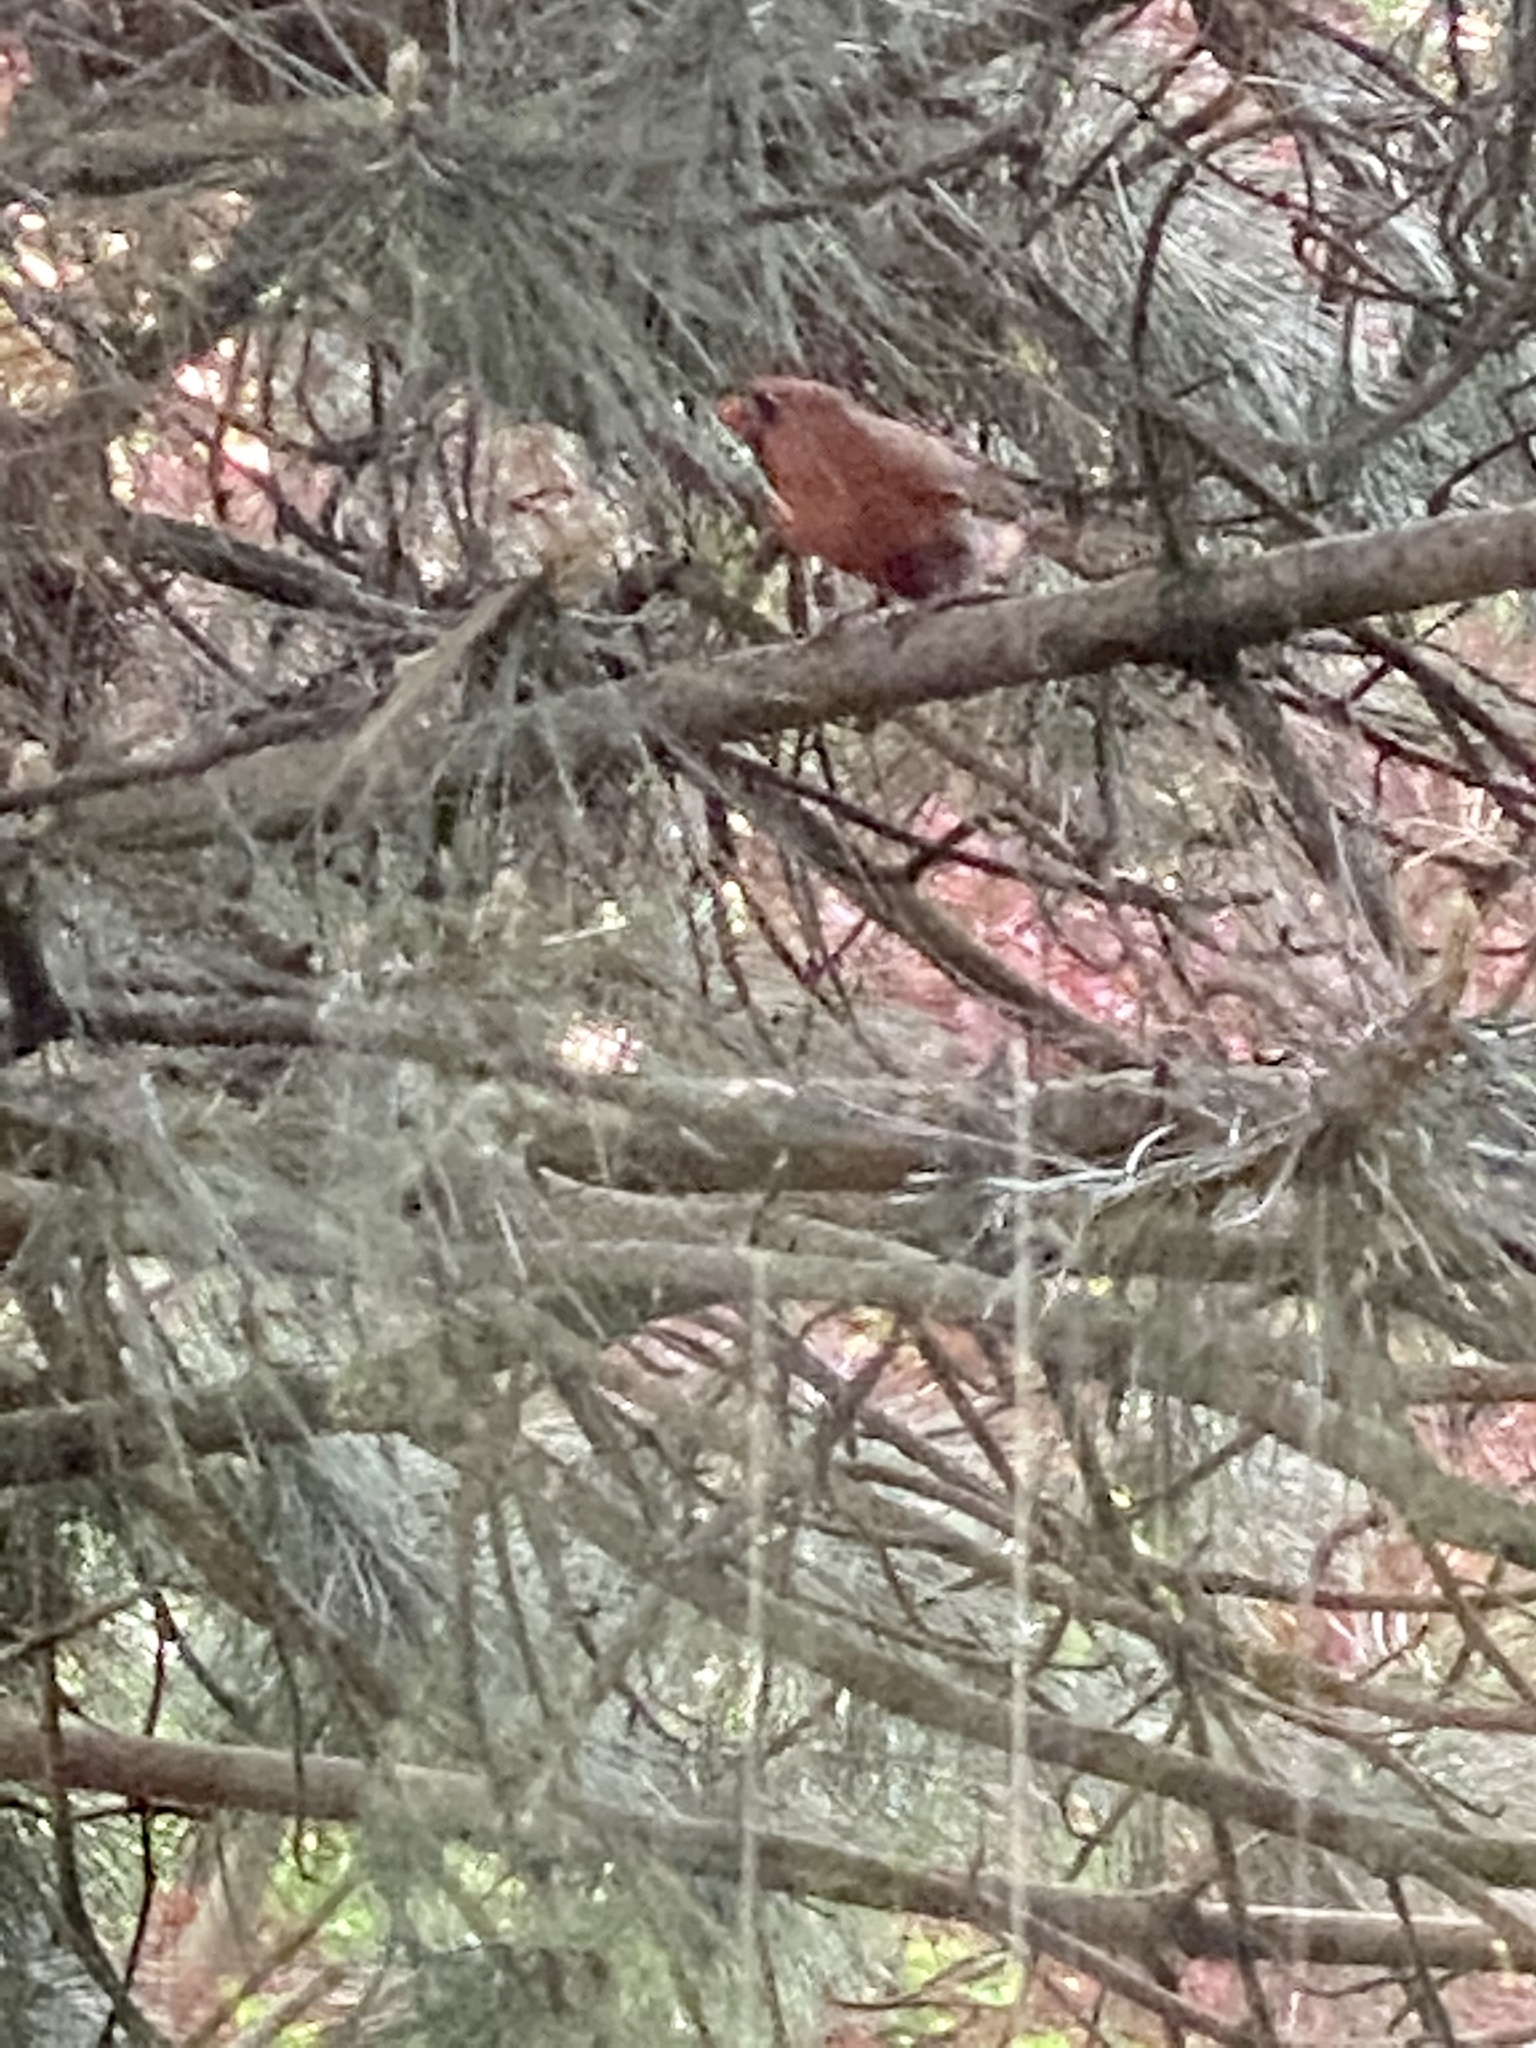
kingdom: Animalia
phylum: Chordata
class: Aves
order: Passeriformes
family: Cardinalidae
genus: Cardinalis
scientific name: Cardinalis cardinalis
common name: Northern cardinal
